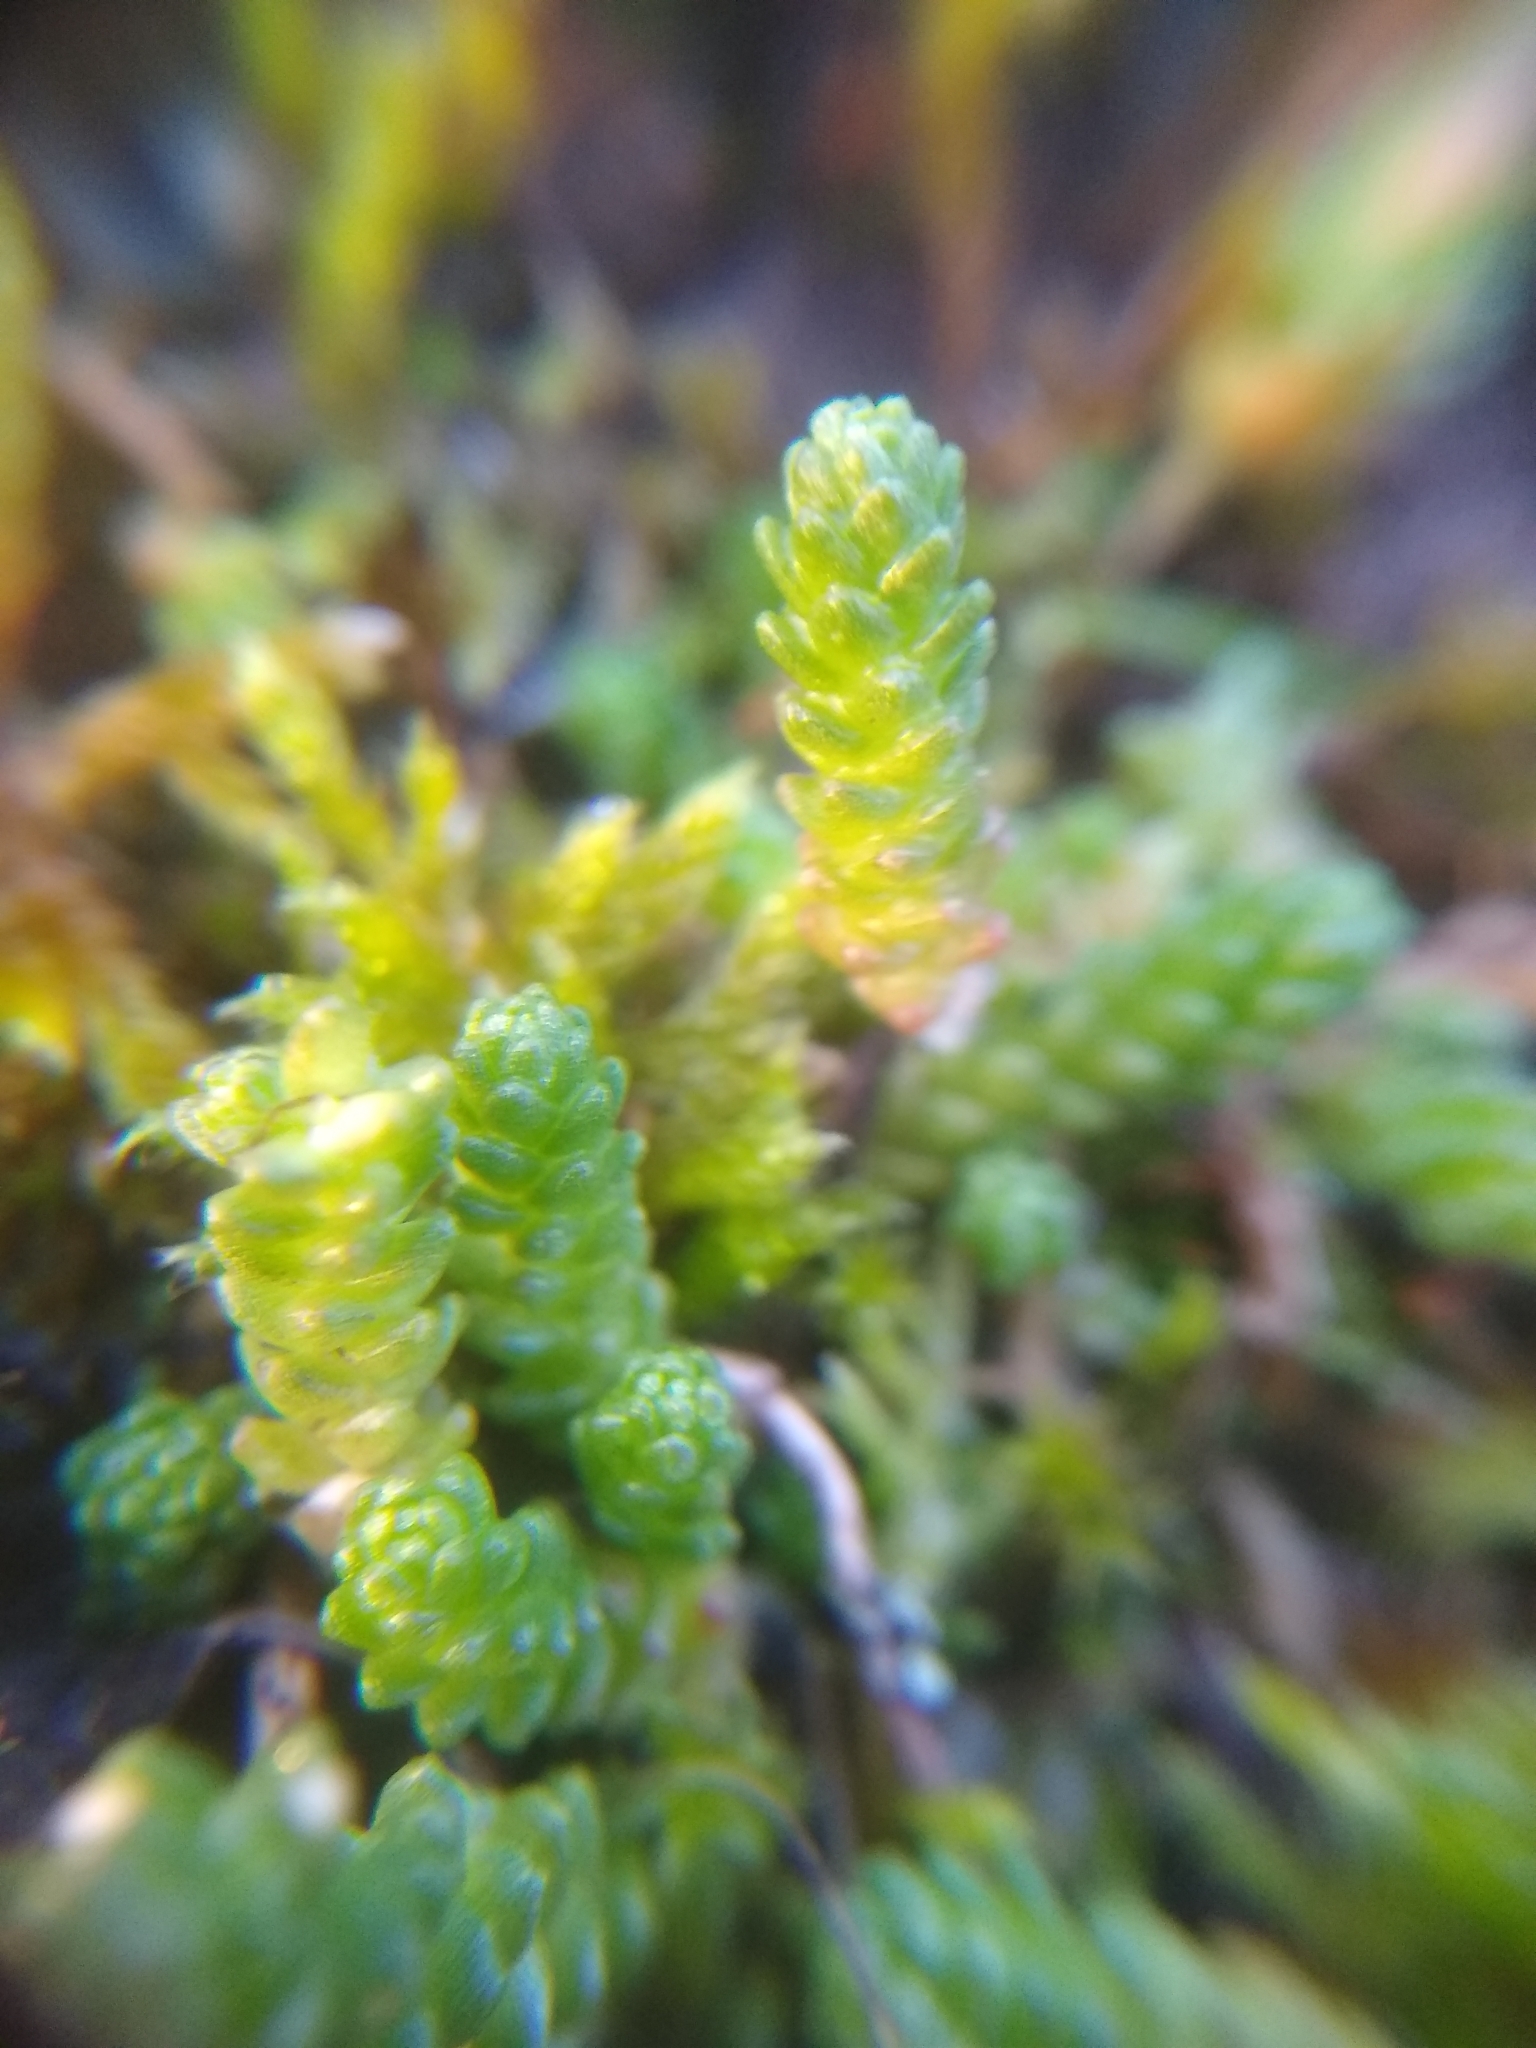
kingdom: Plantae
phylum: Tracheophyta
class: Magnoliopsida
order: Saxifragales
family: Crassulaceae
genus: Sedum
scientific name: Sedum acre
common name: Biting stonecrop
